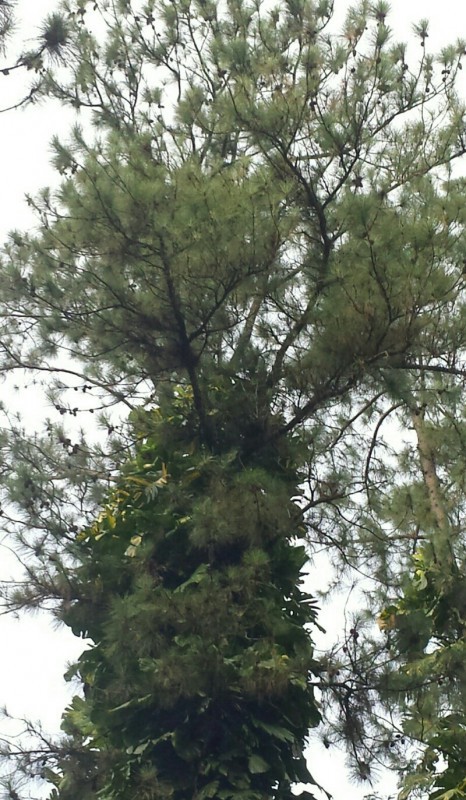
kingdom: Plantae
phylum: Tracheophyta
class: Pinopsida
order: Pinales
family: Pinaceae
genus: Pinus
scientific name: Pinus caribaea
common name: Caribbean pine
